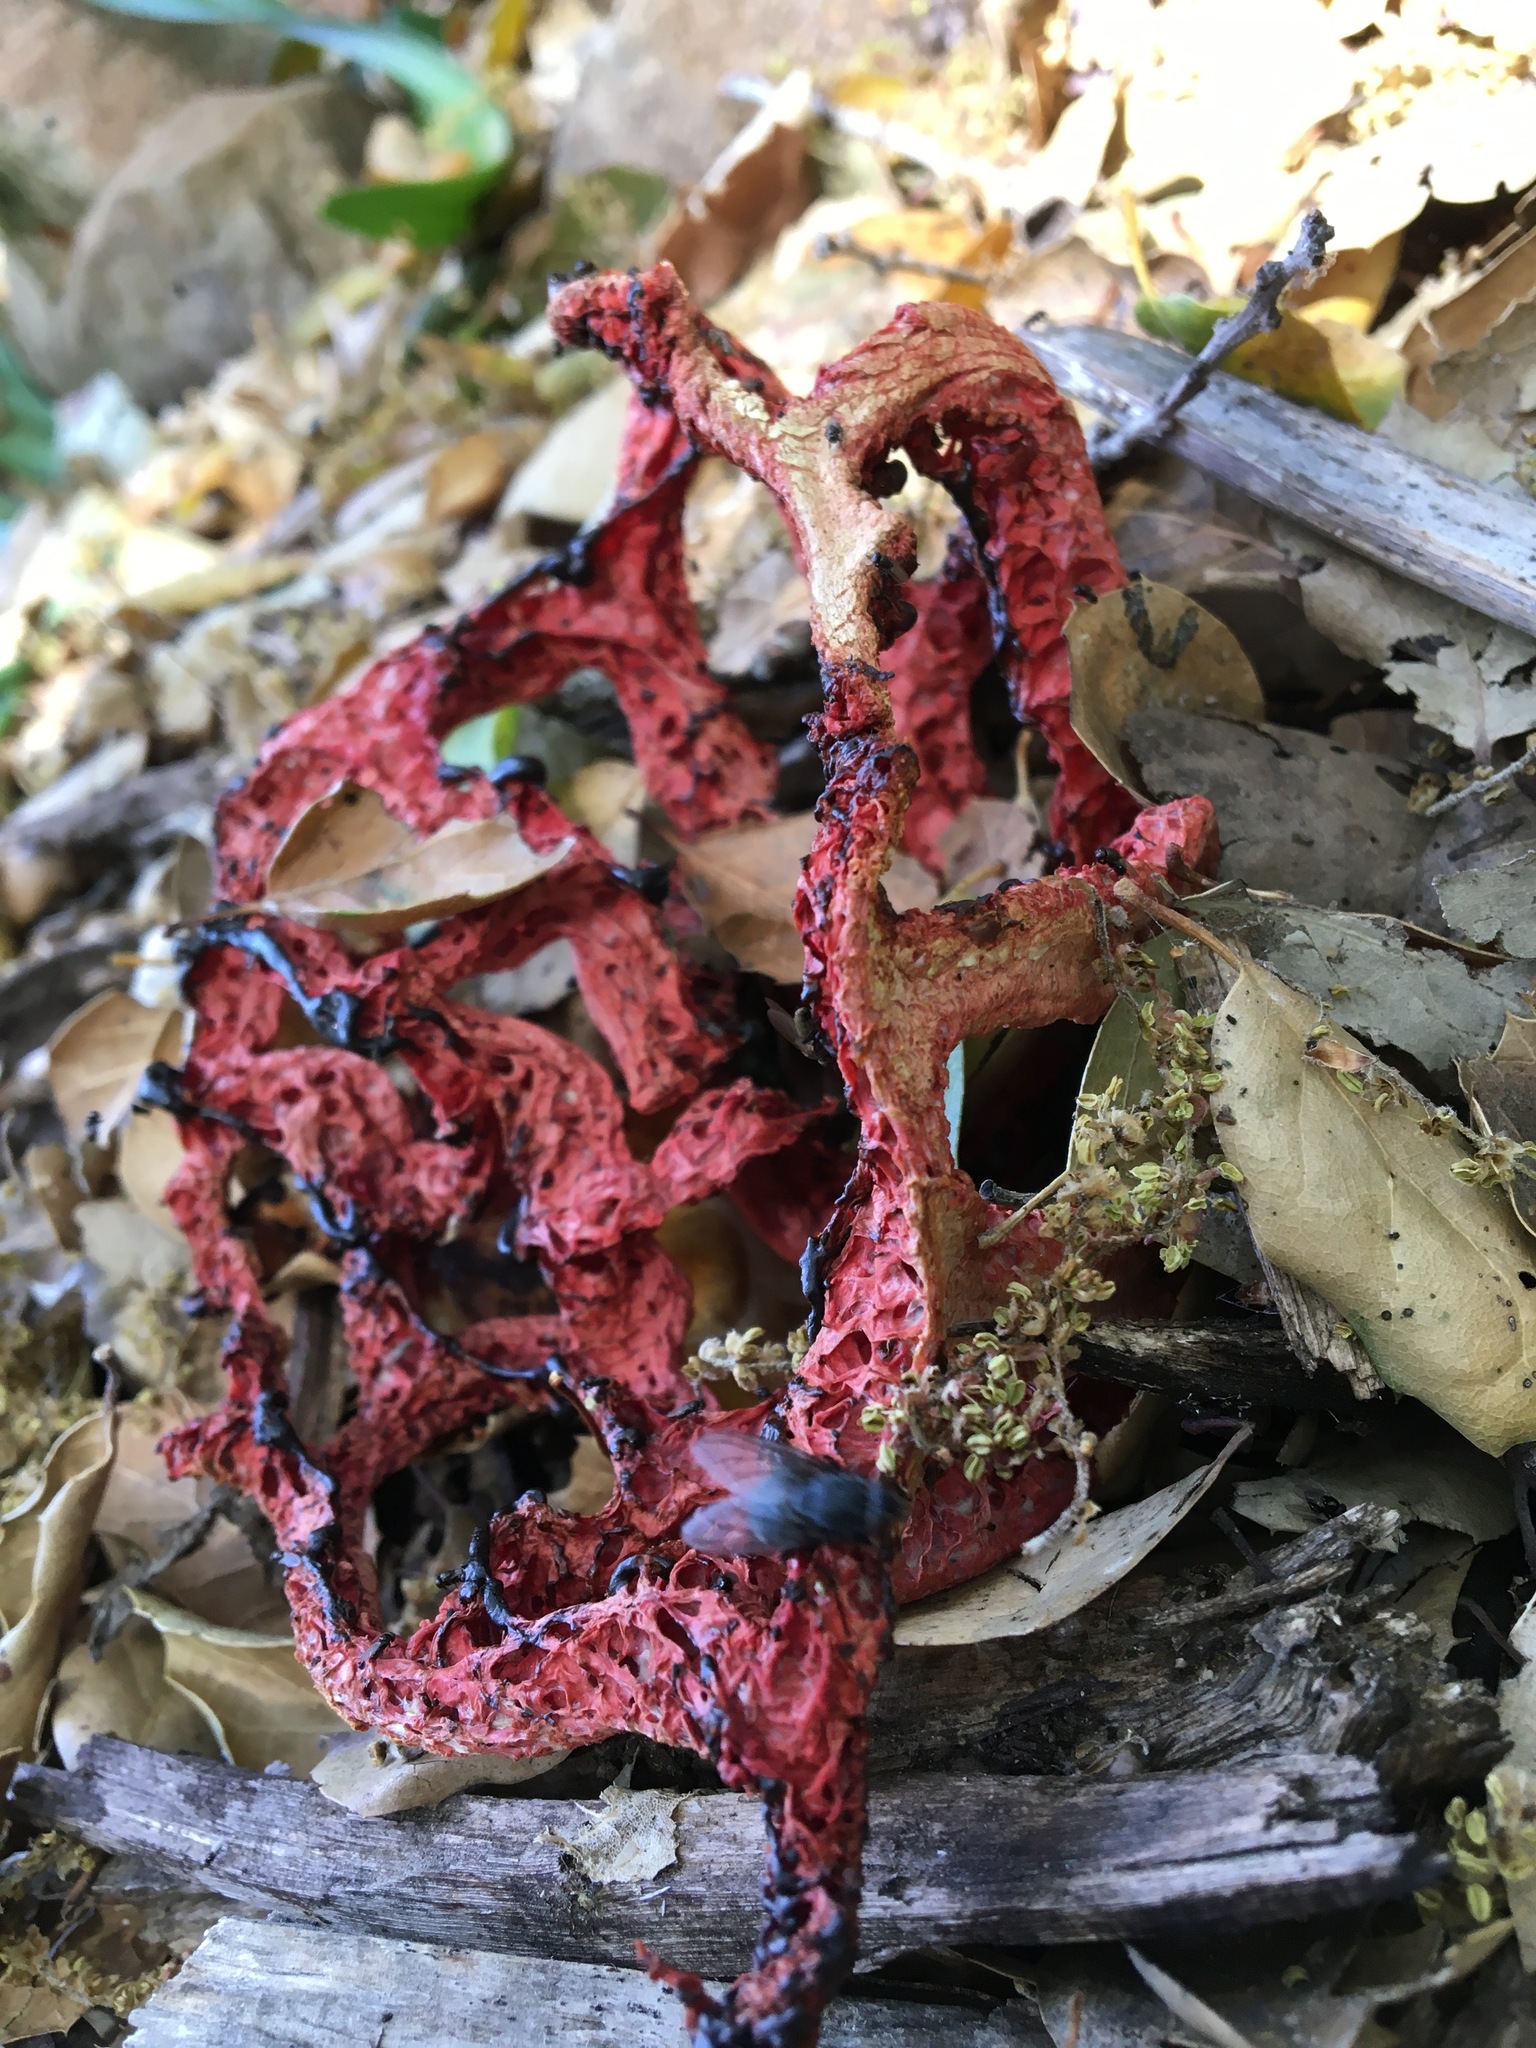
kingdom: Fungi
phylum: Basidiomycota
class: Agaricomycetes
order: Phallales
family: Phallaceae
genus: Clathrus
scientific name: Clathrus ruber
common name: Red cage
